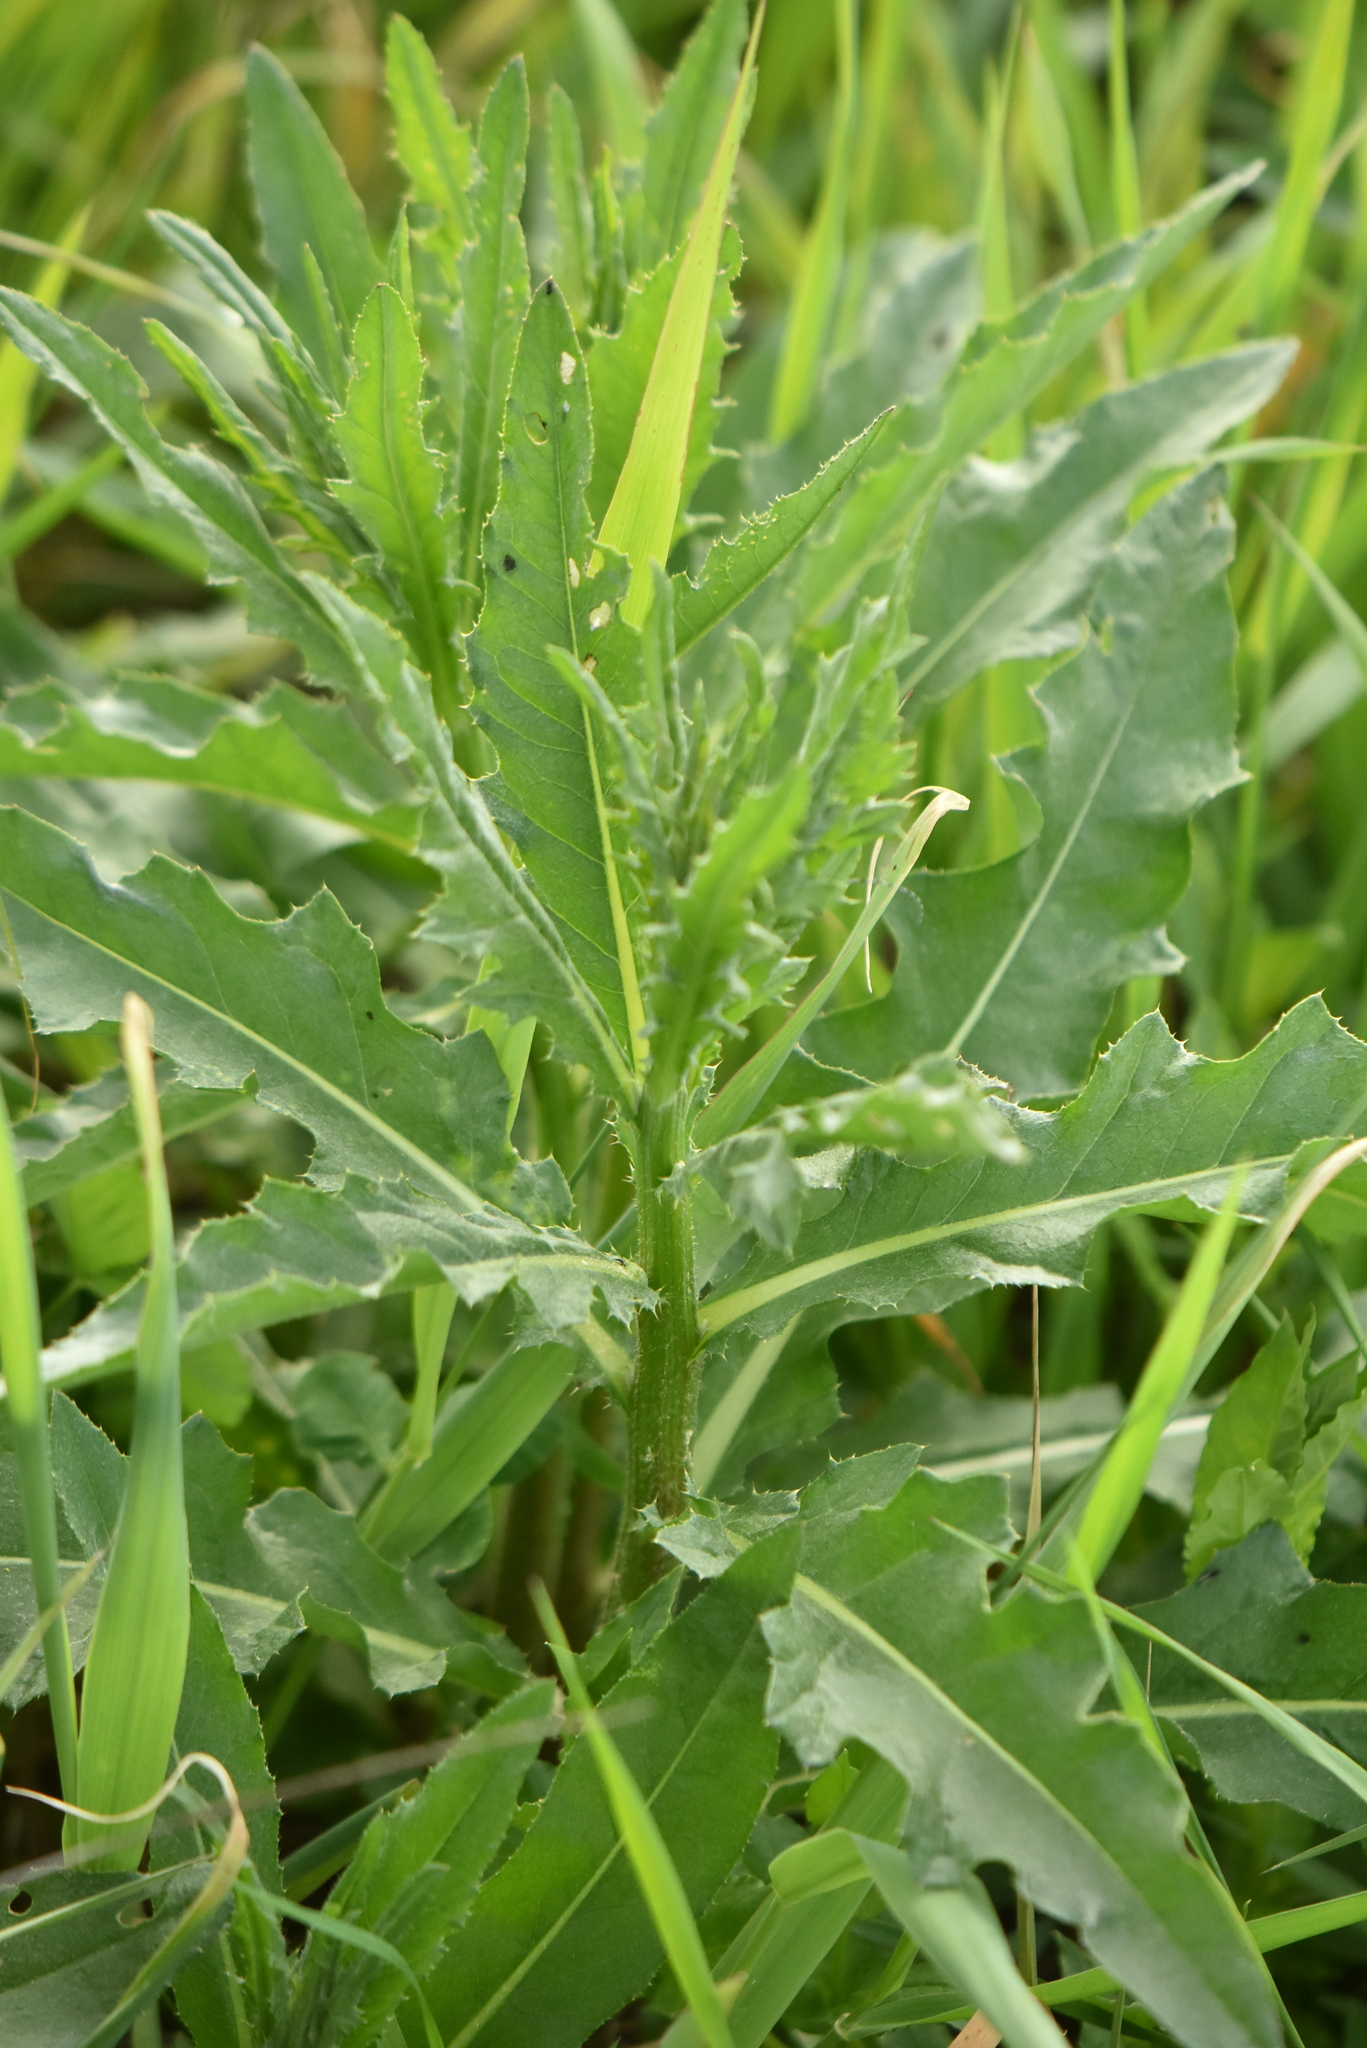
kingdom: Plantae
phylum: Tracheophyta
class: Magnoliopsida
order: Asterales
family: Asteraceae
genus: Cirsium
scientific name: Cirsium arvense
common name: Creeping thistle
